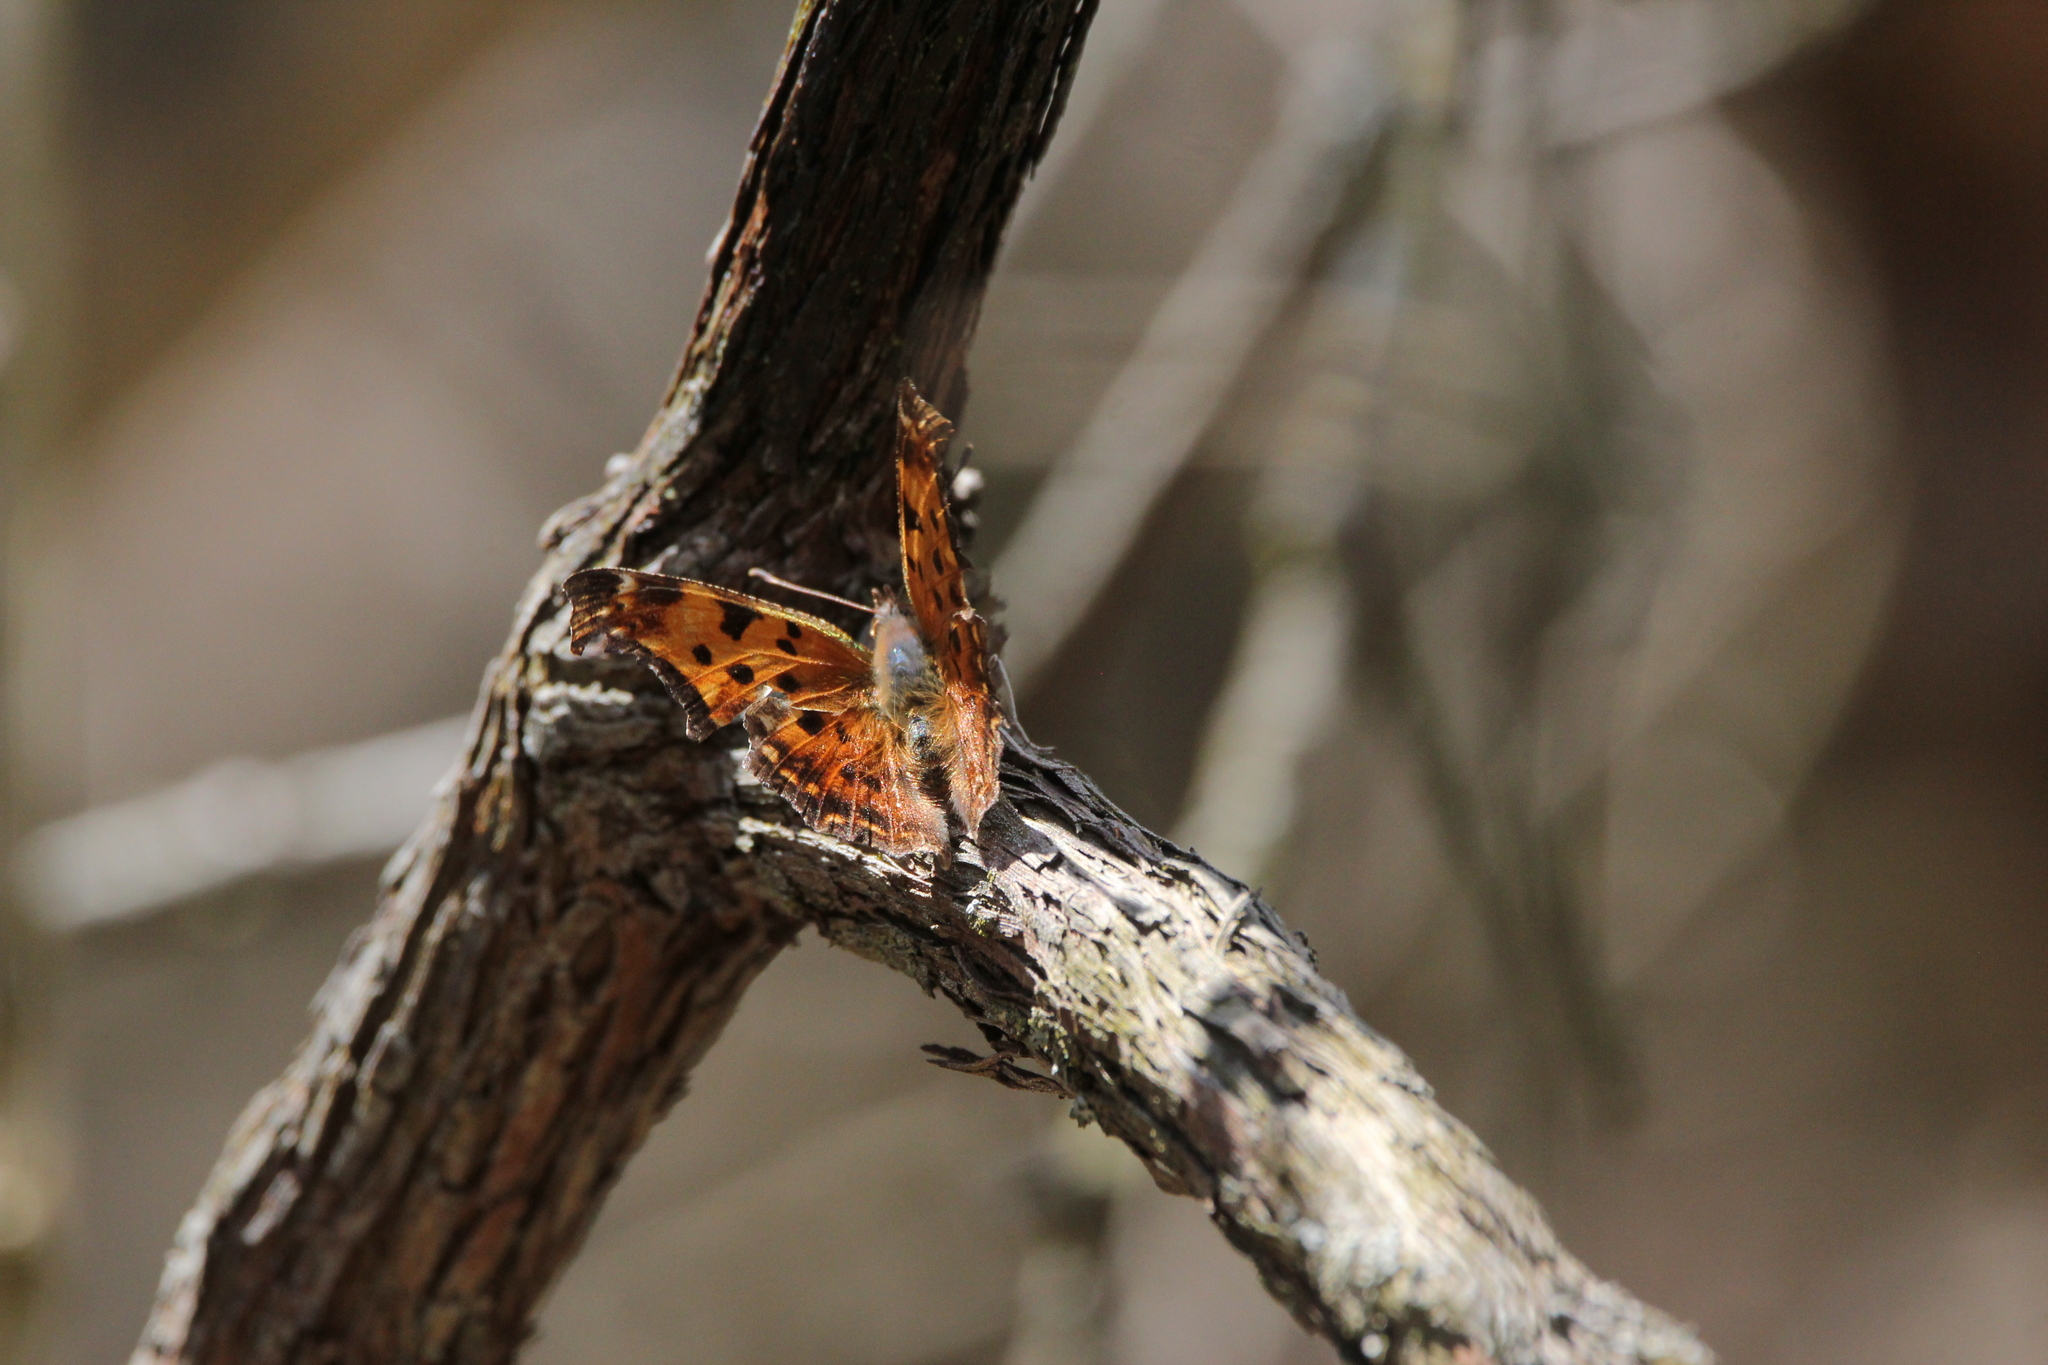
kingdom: Animalia
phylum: Arthropoda
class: Insecta
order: Lepidoptera
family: Nymphalidae
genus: Polygonia
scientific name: Polygonia comma
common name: Eastern comma
